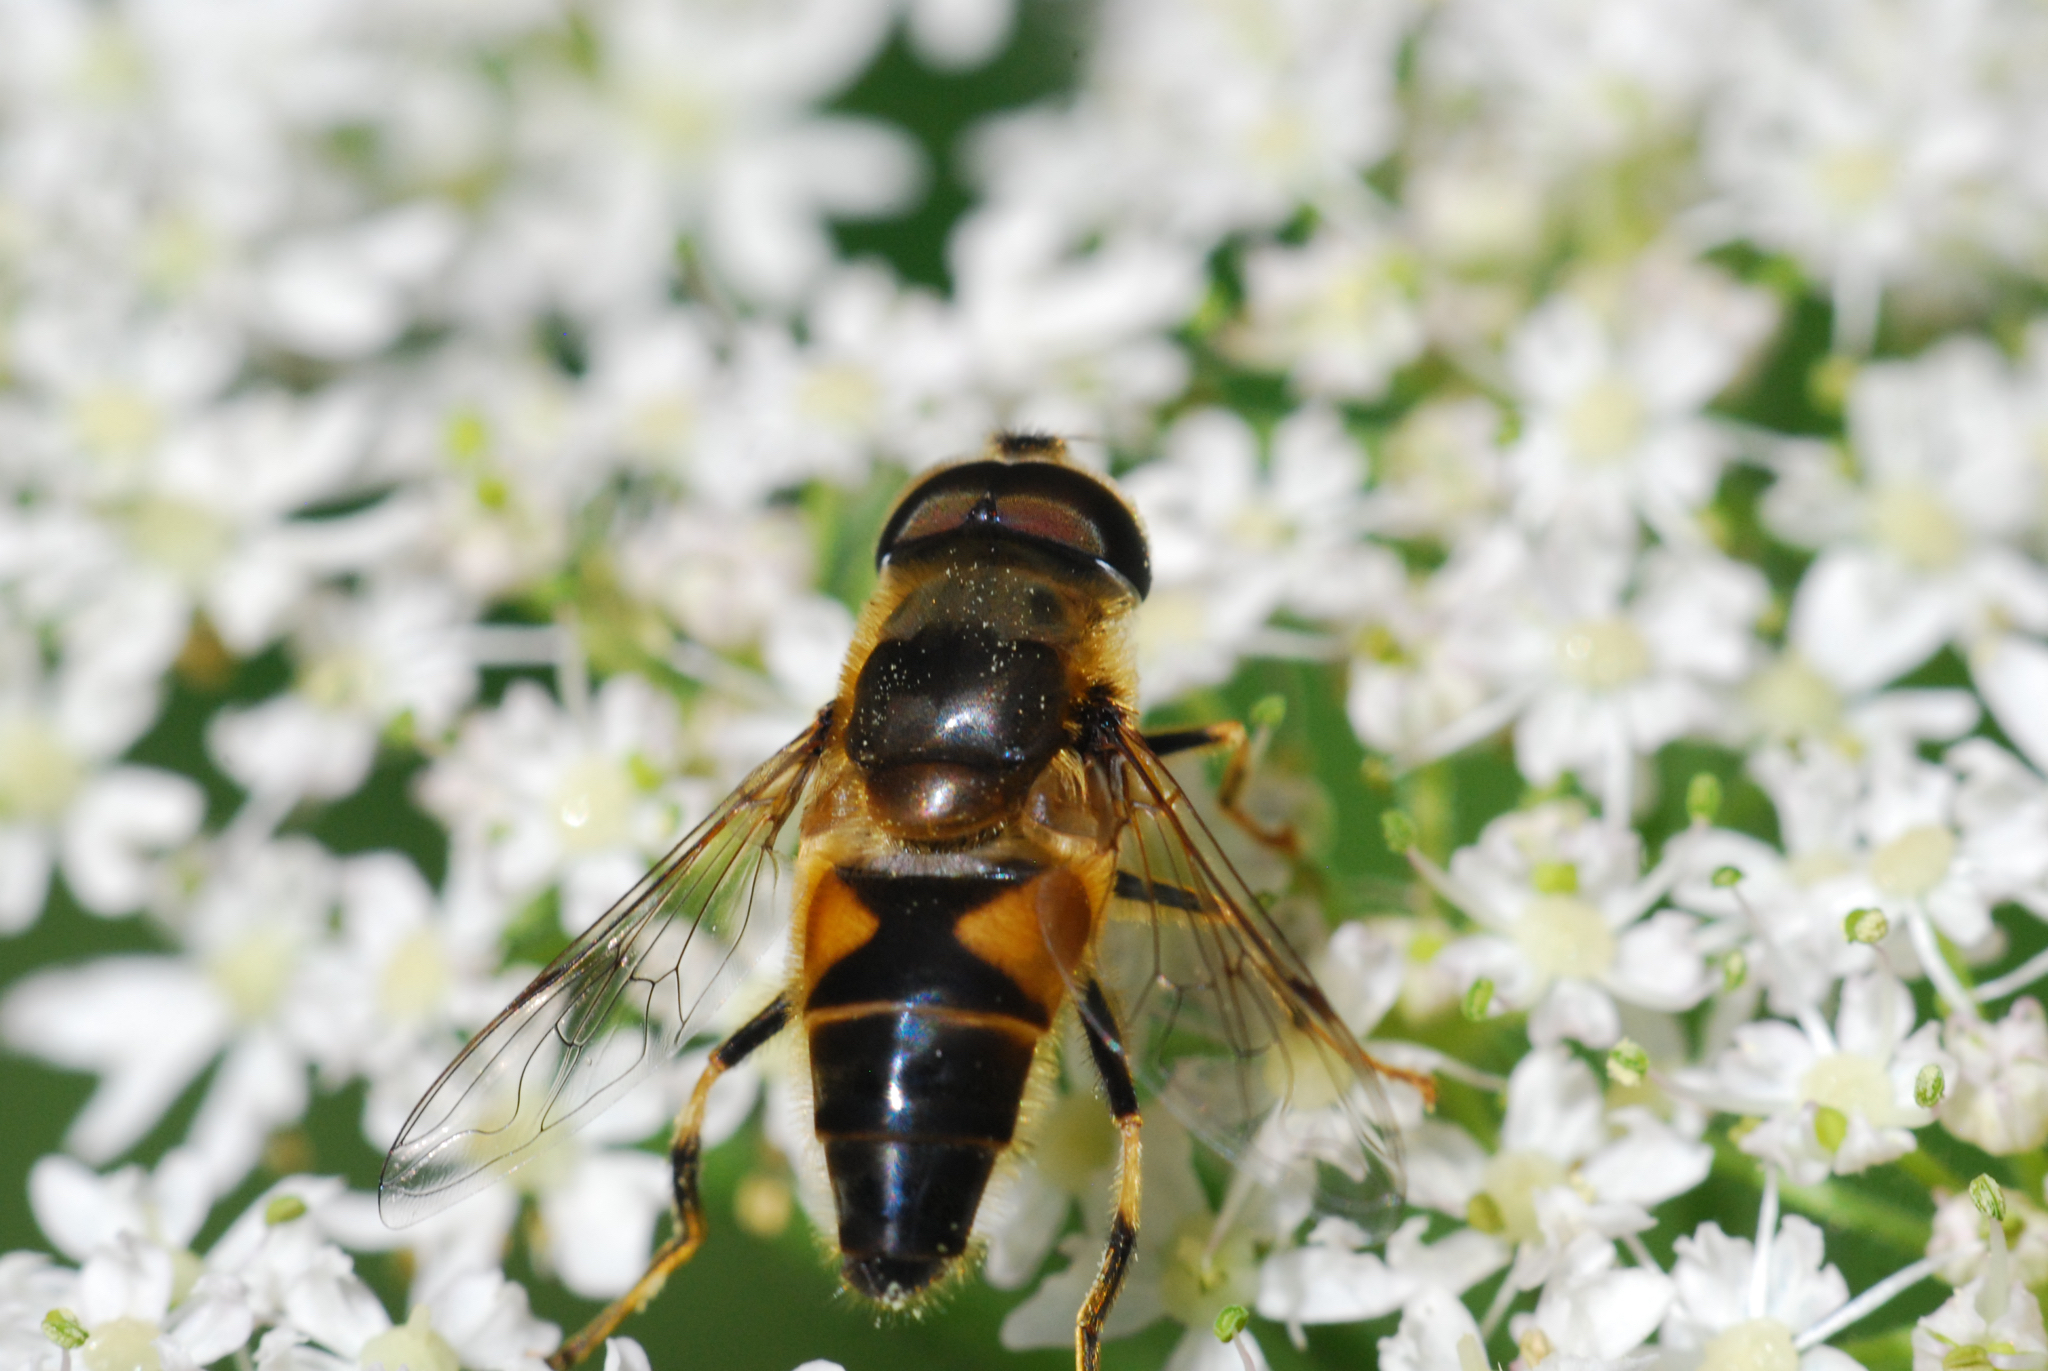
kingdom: Animalia
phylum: Arthropoda
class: Insecta
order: Diptera
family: Syrphidae
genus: Eristalis
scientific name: Eristalis pertinax
